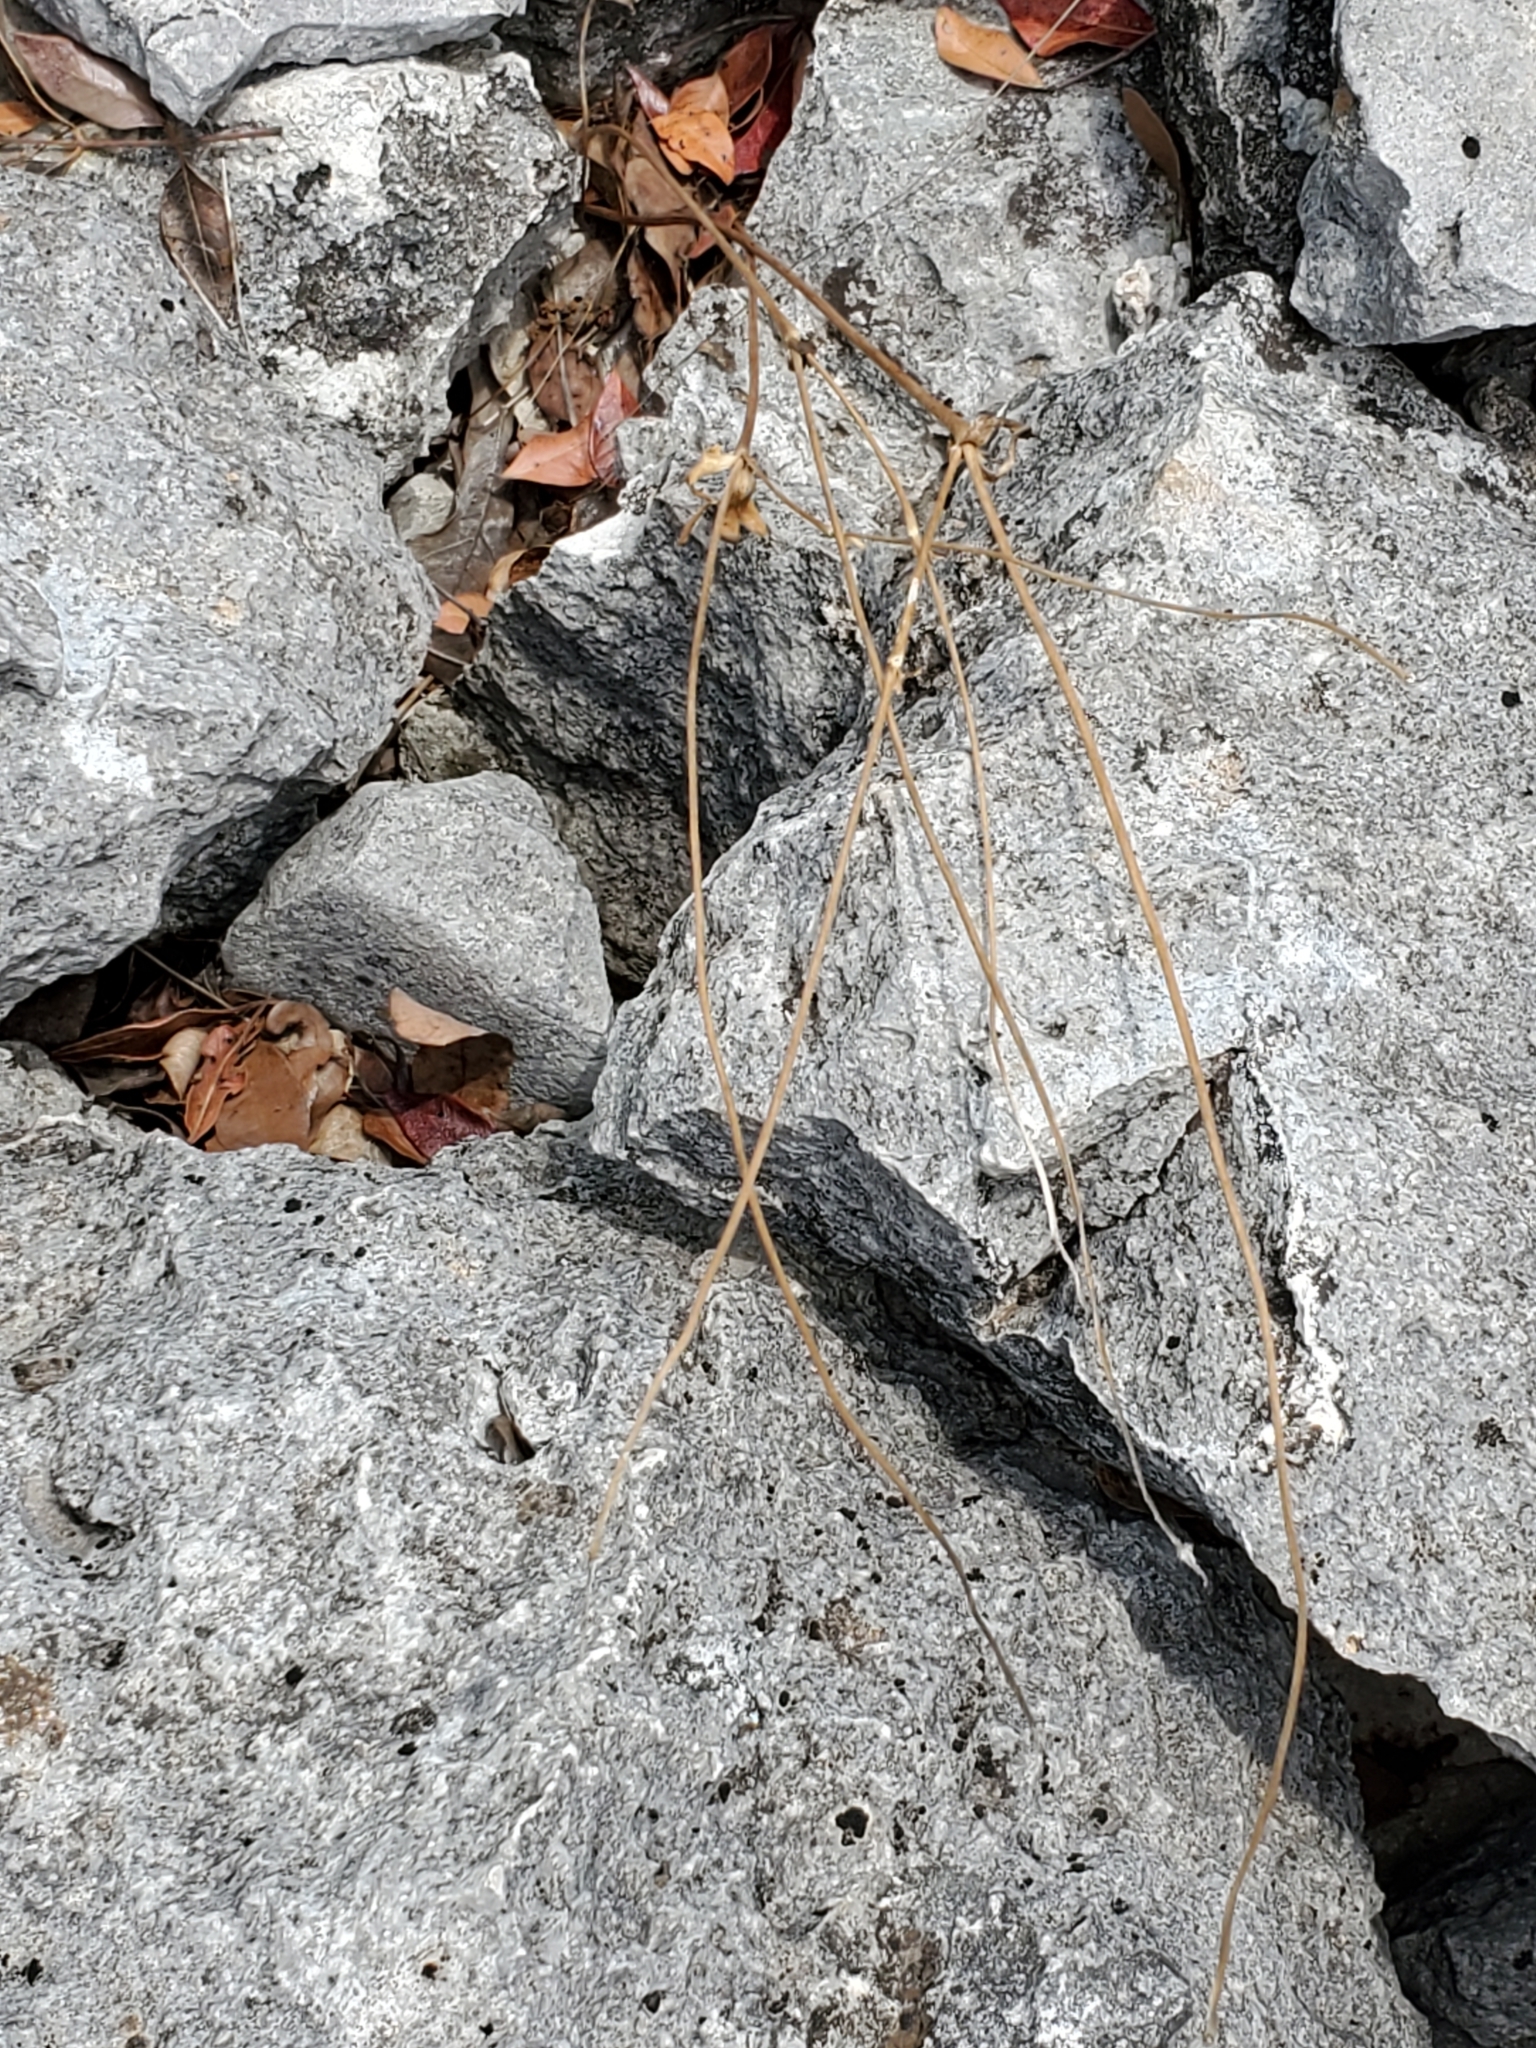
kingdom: Plantae
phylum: Tracheophyta
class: Magnoliopsida
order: Ranunculales
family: Ranunculaceae
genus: Anemone
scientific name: Anemone edwardsiana
